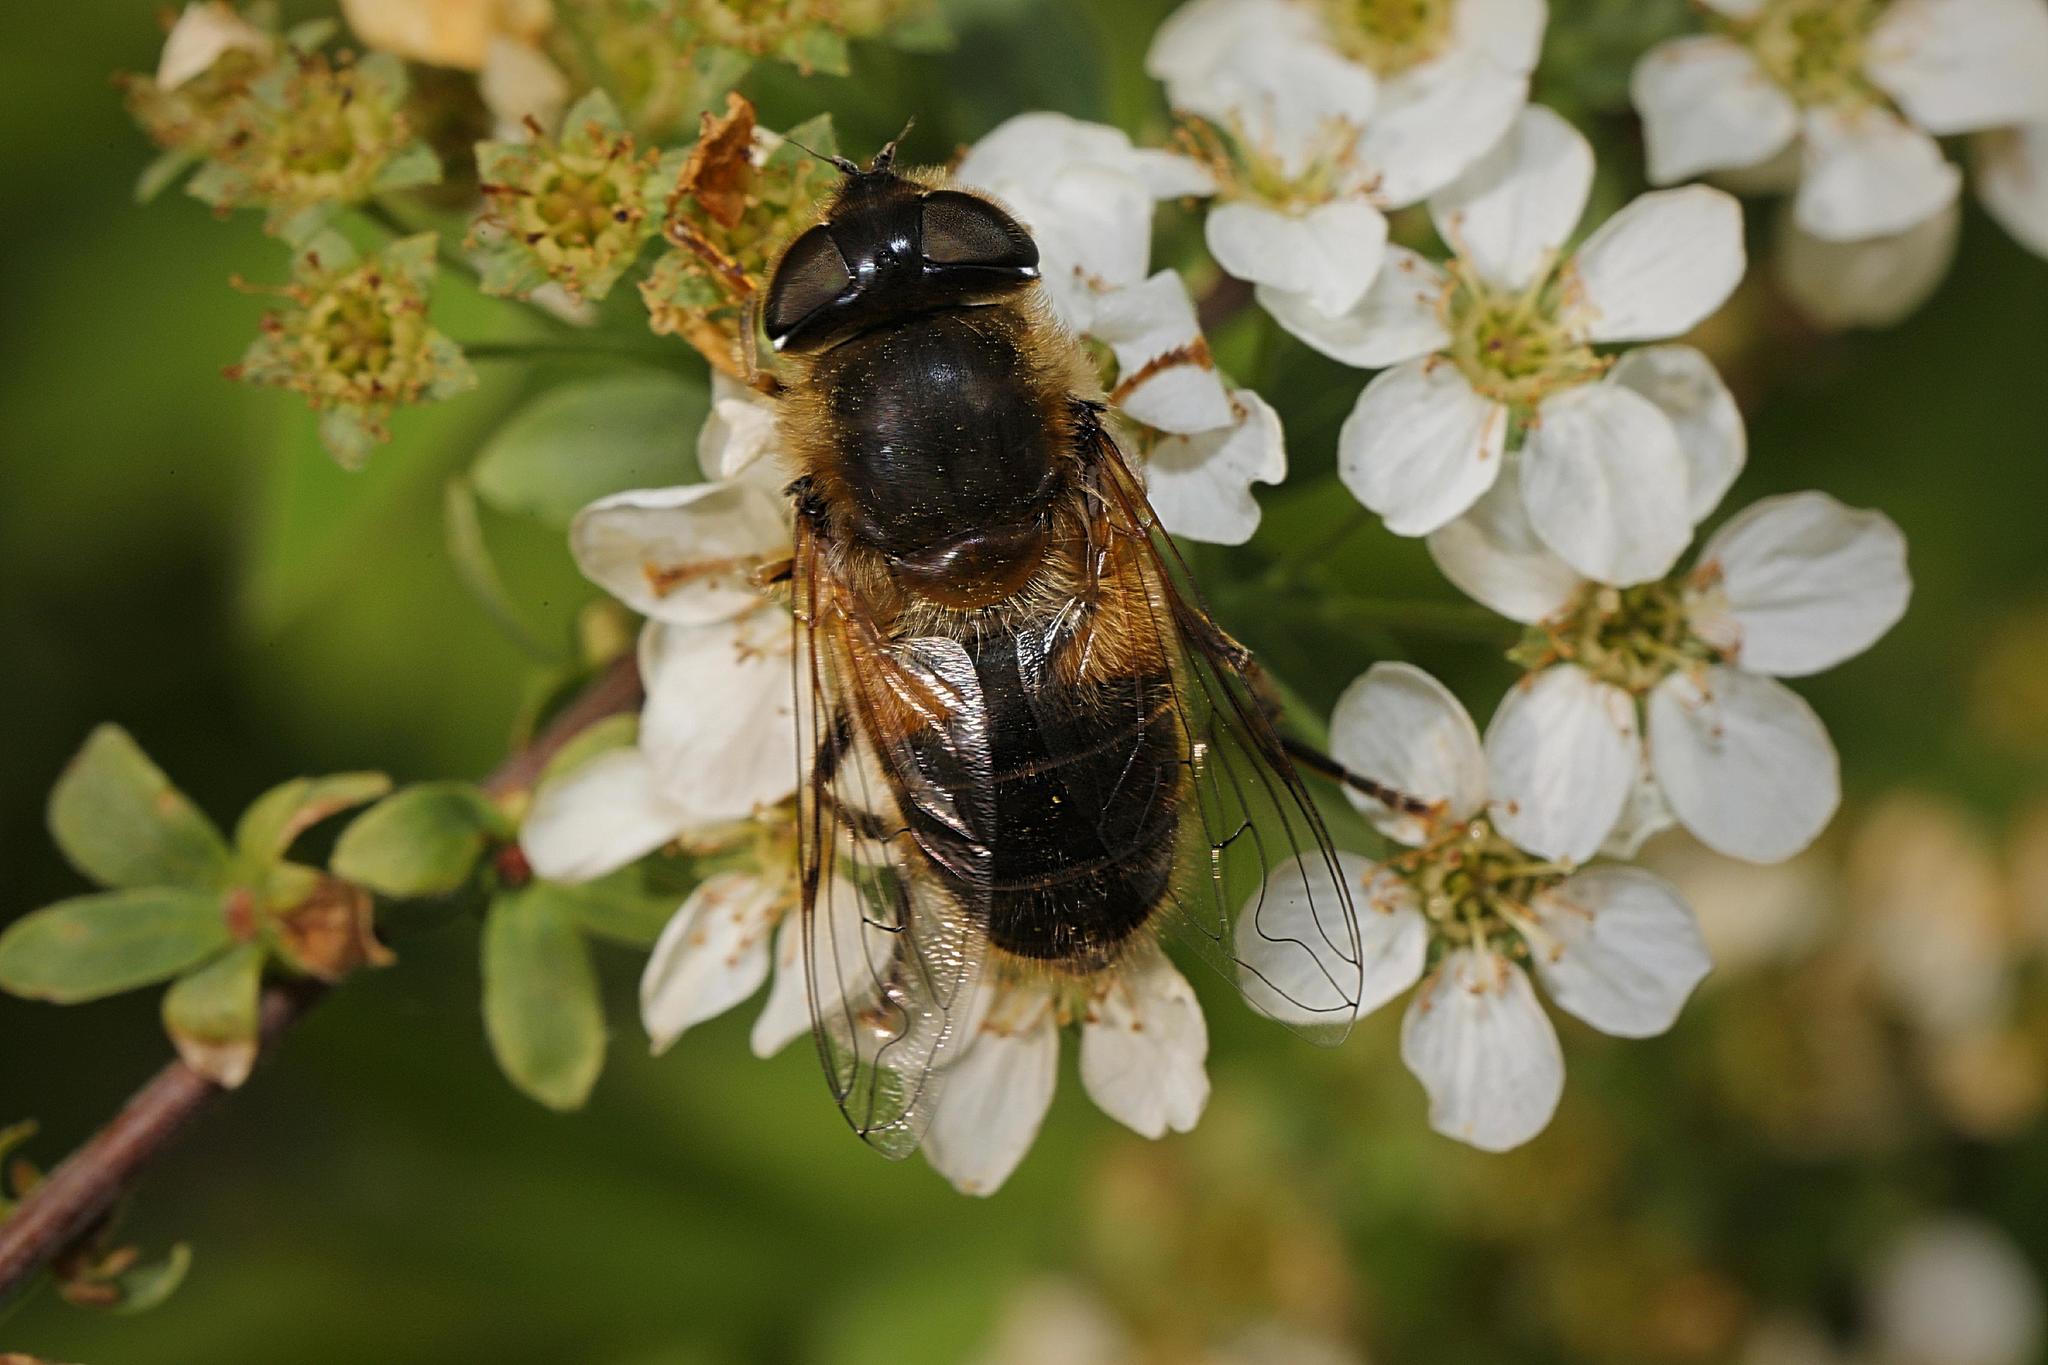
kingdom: Animalia
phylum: Arthropoda
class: Insecta
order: Diptera
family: Syrphidae
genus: Eristalis
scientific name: Eristalis pertinax
